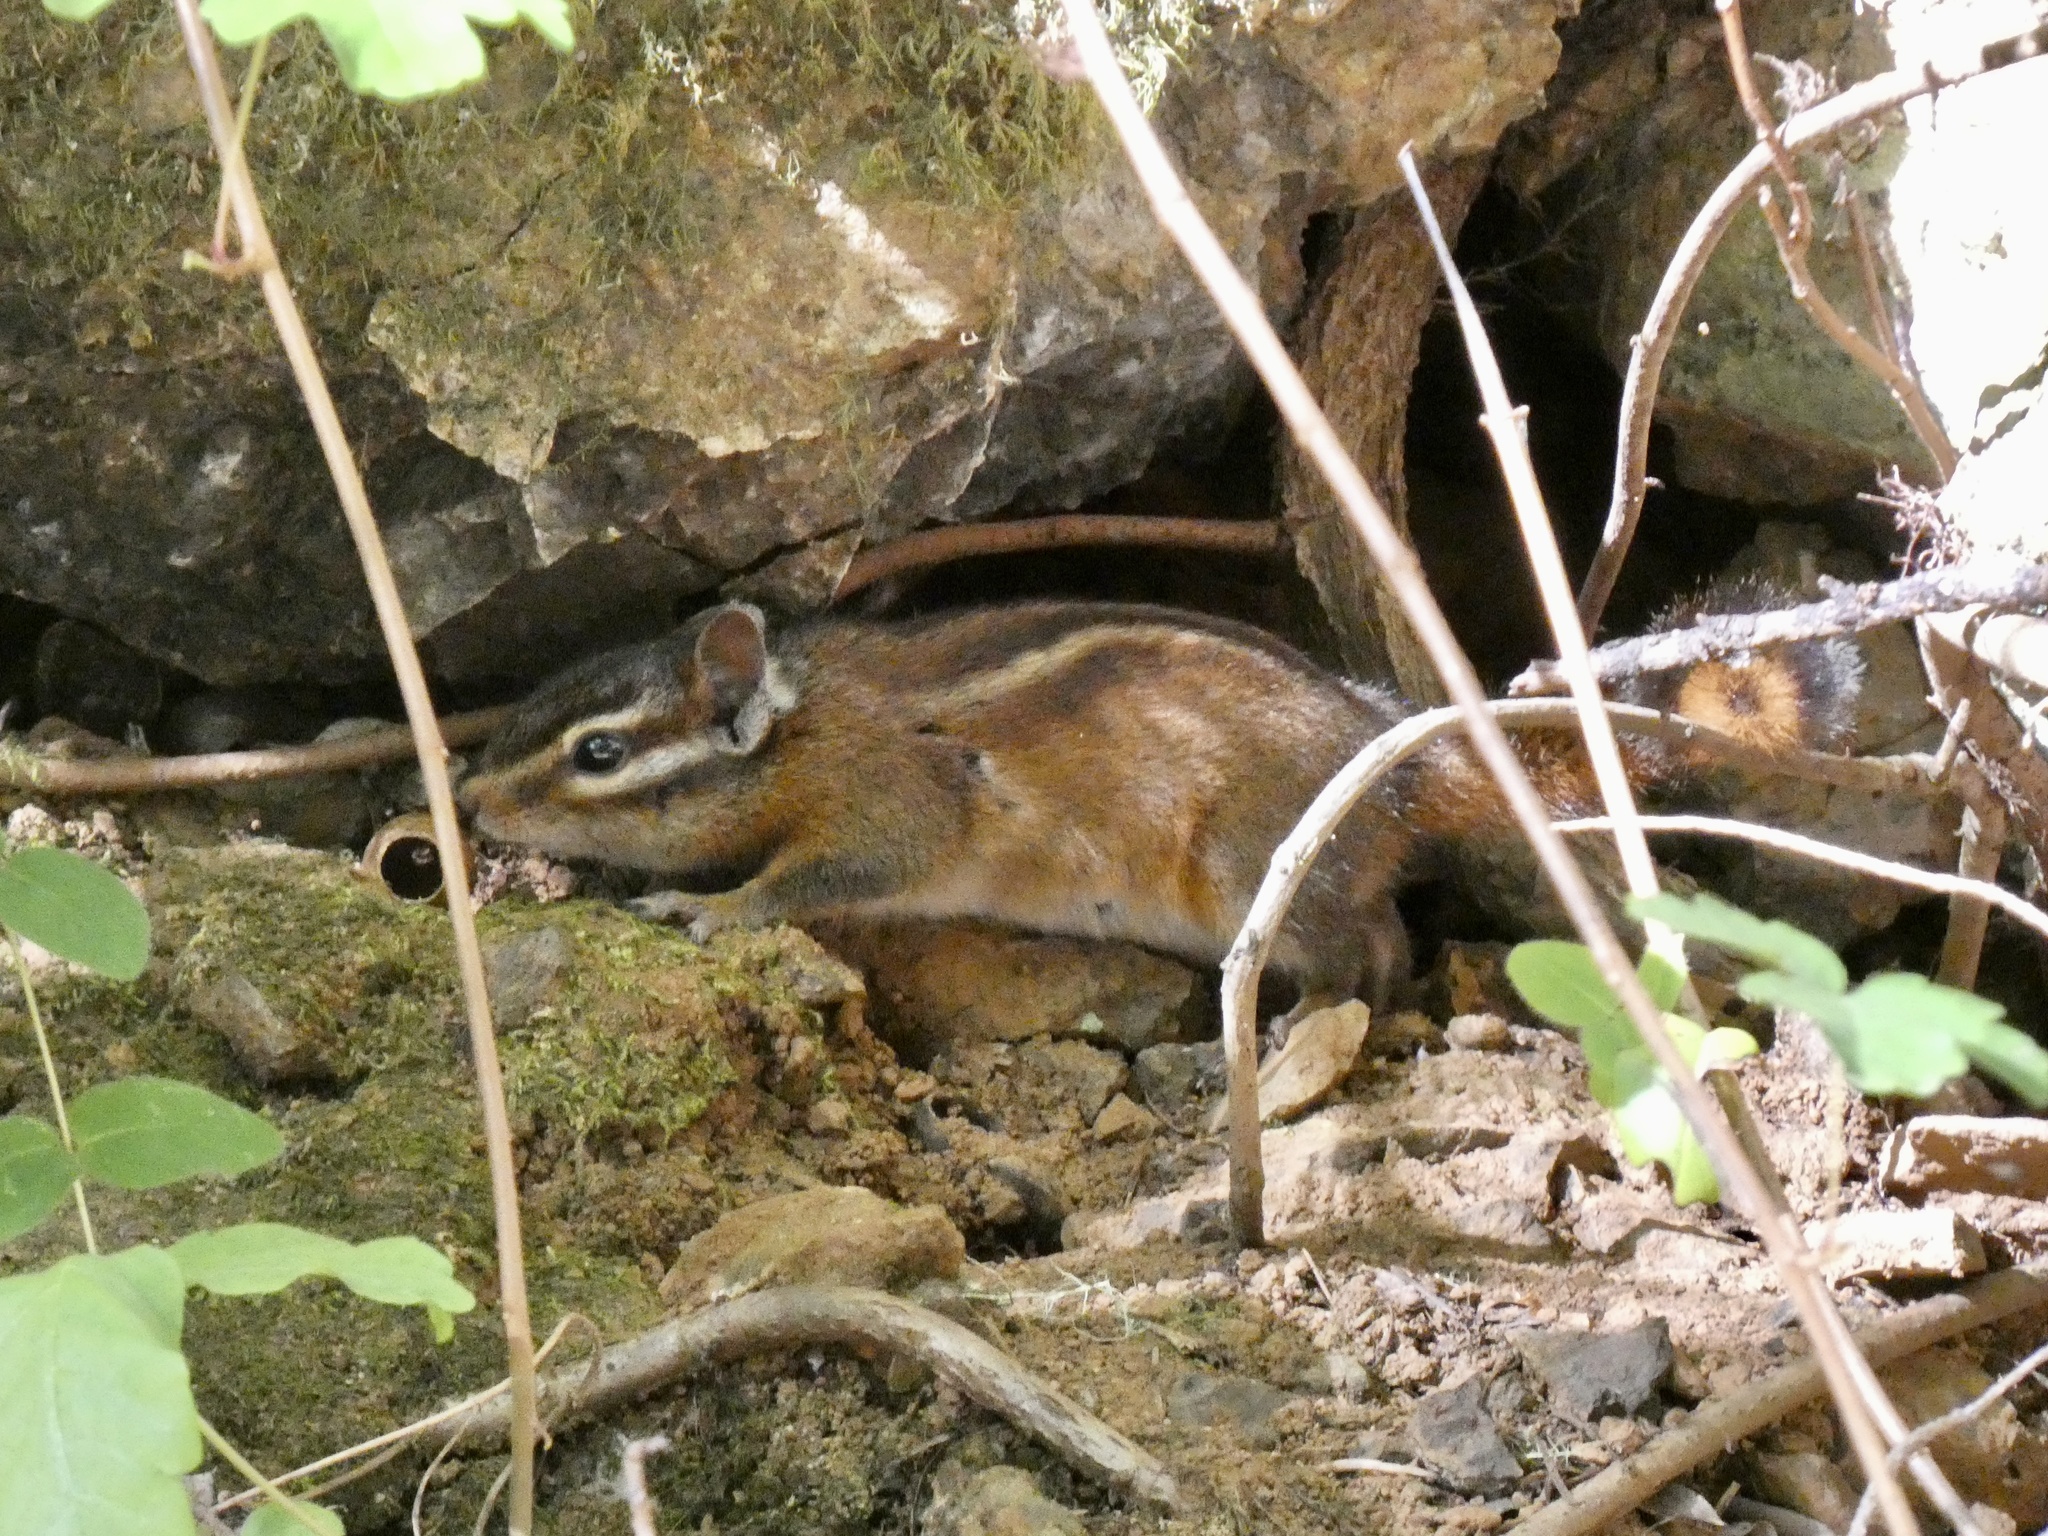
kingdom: Animalia
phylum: Chordata
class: Mammalia
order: Rodentia
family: Sciuridae
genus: Tamias
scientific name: Tamias sonomae
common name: Sonoma chipmunk
